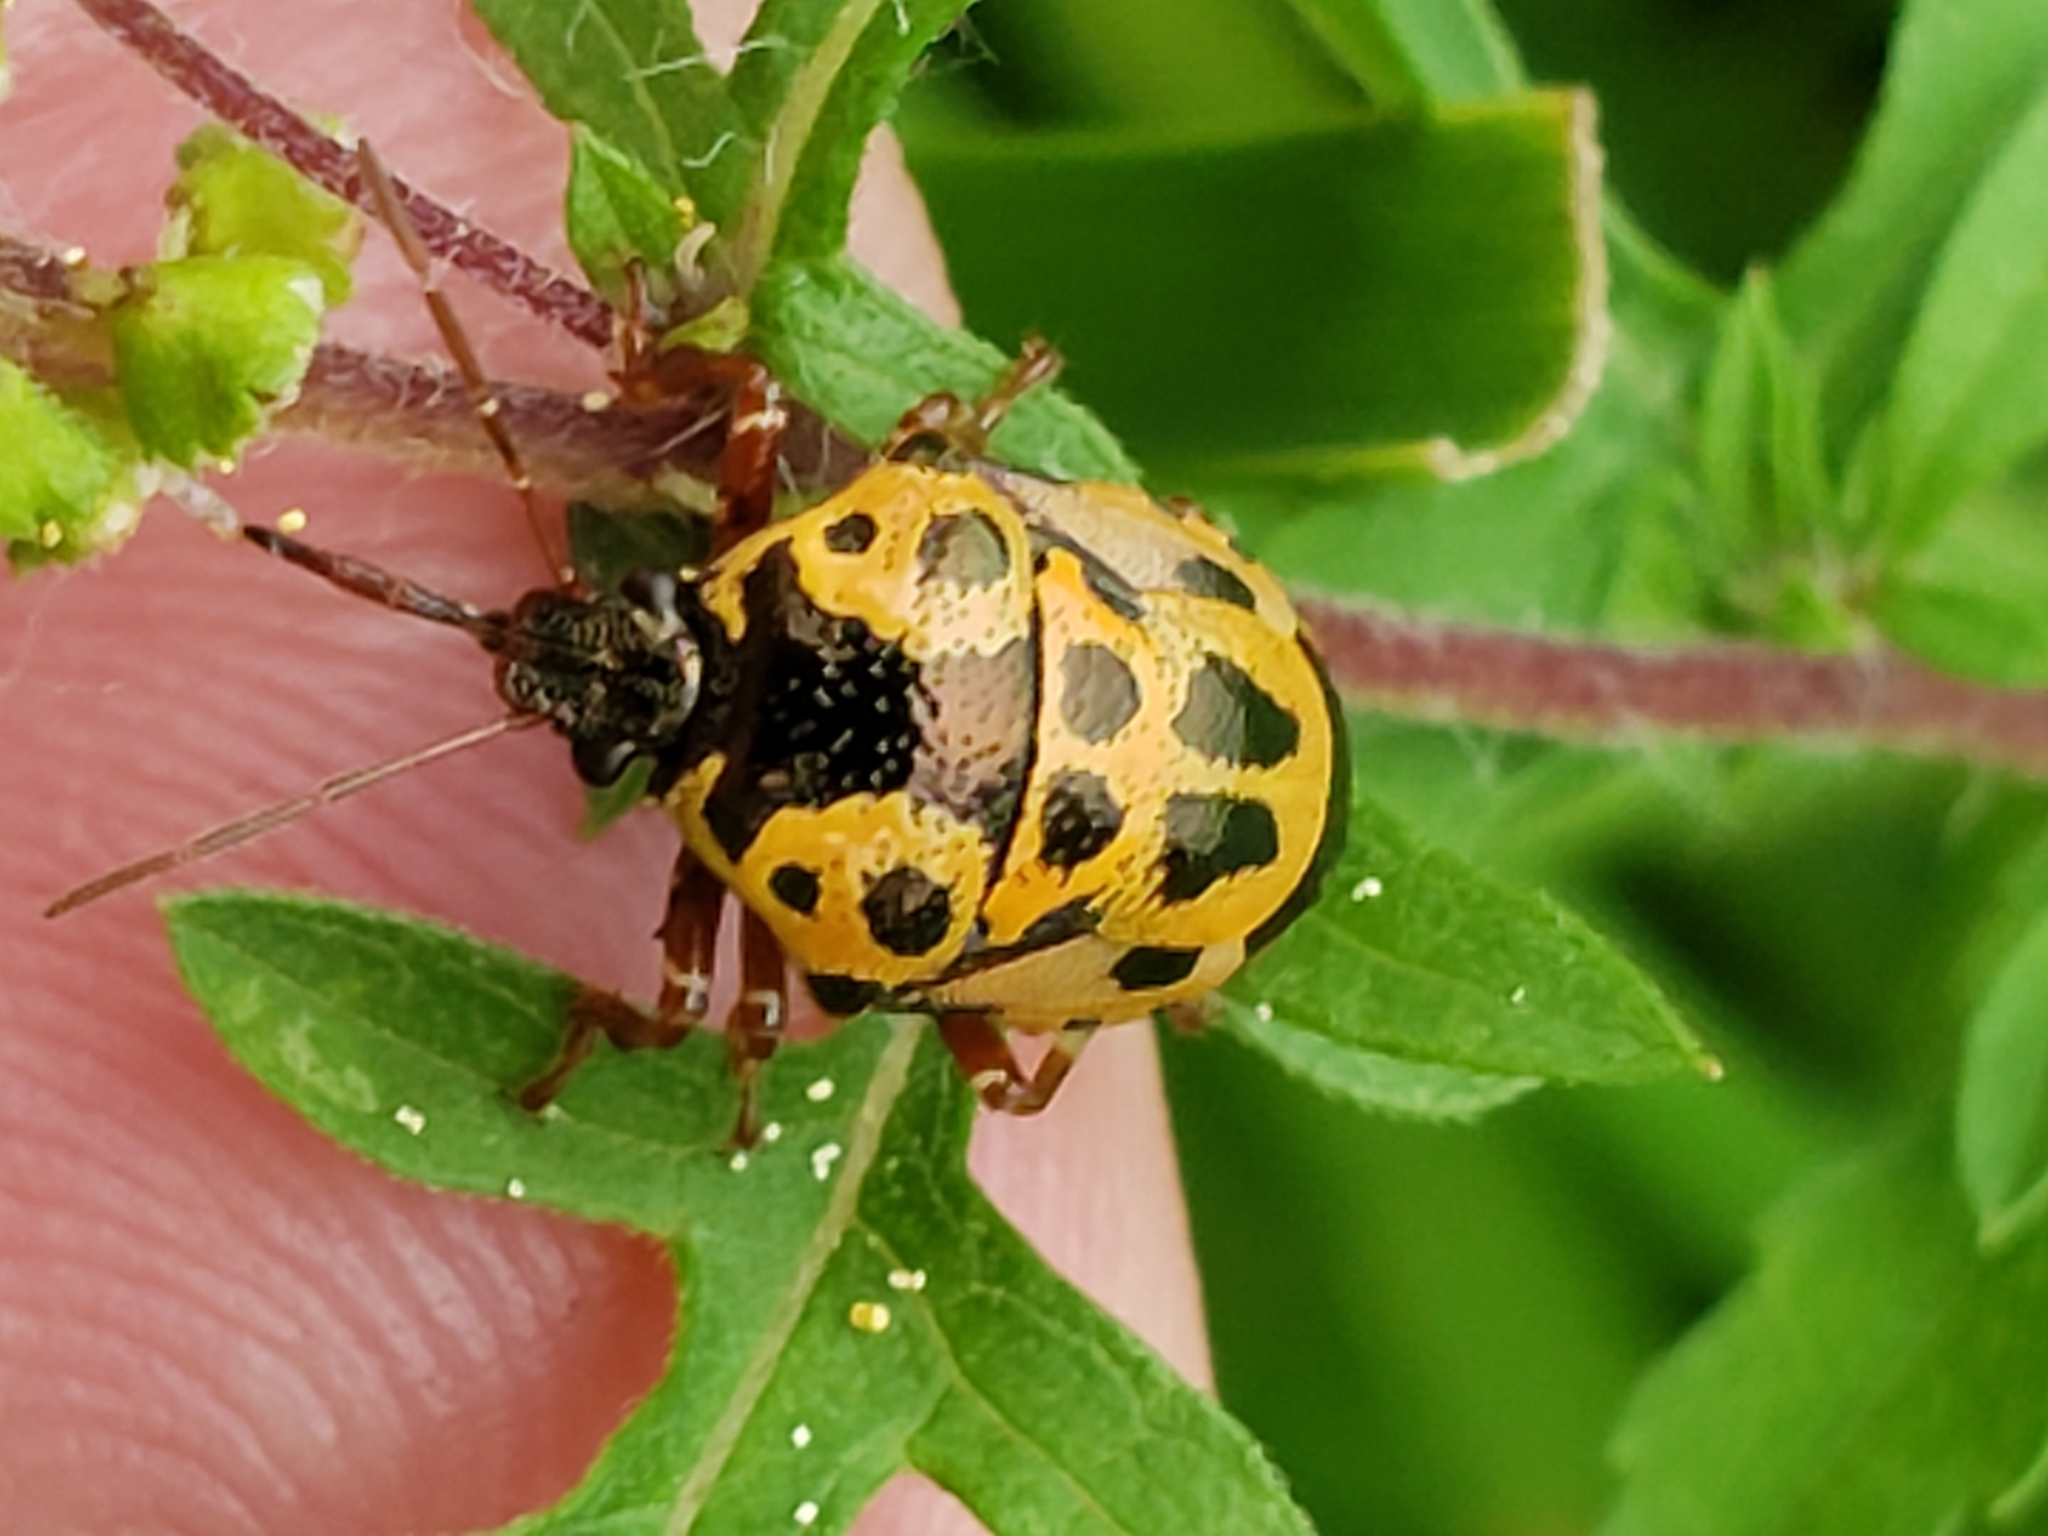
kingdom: Animalia
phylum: Arthropoda
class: Insecta
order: Hemiptera
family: Pentatomidae
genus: Stiretrus
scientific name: Stiretrus anchorago
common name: Anchor stink bug
